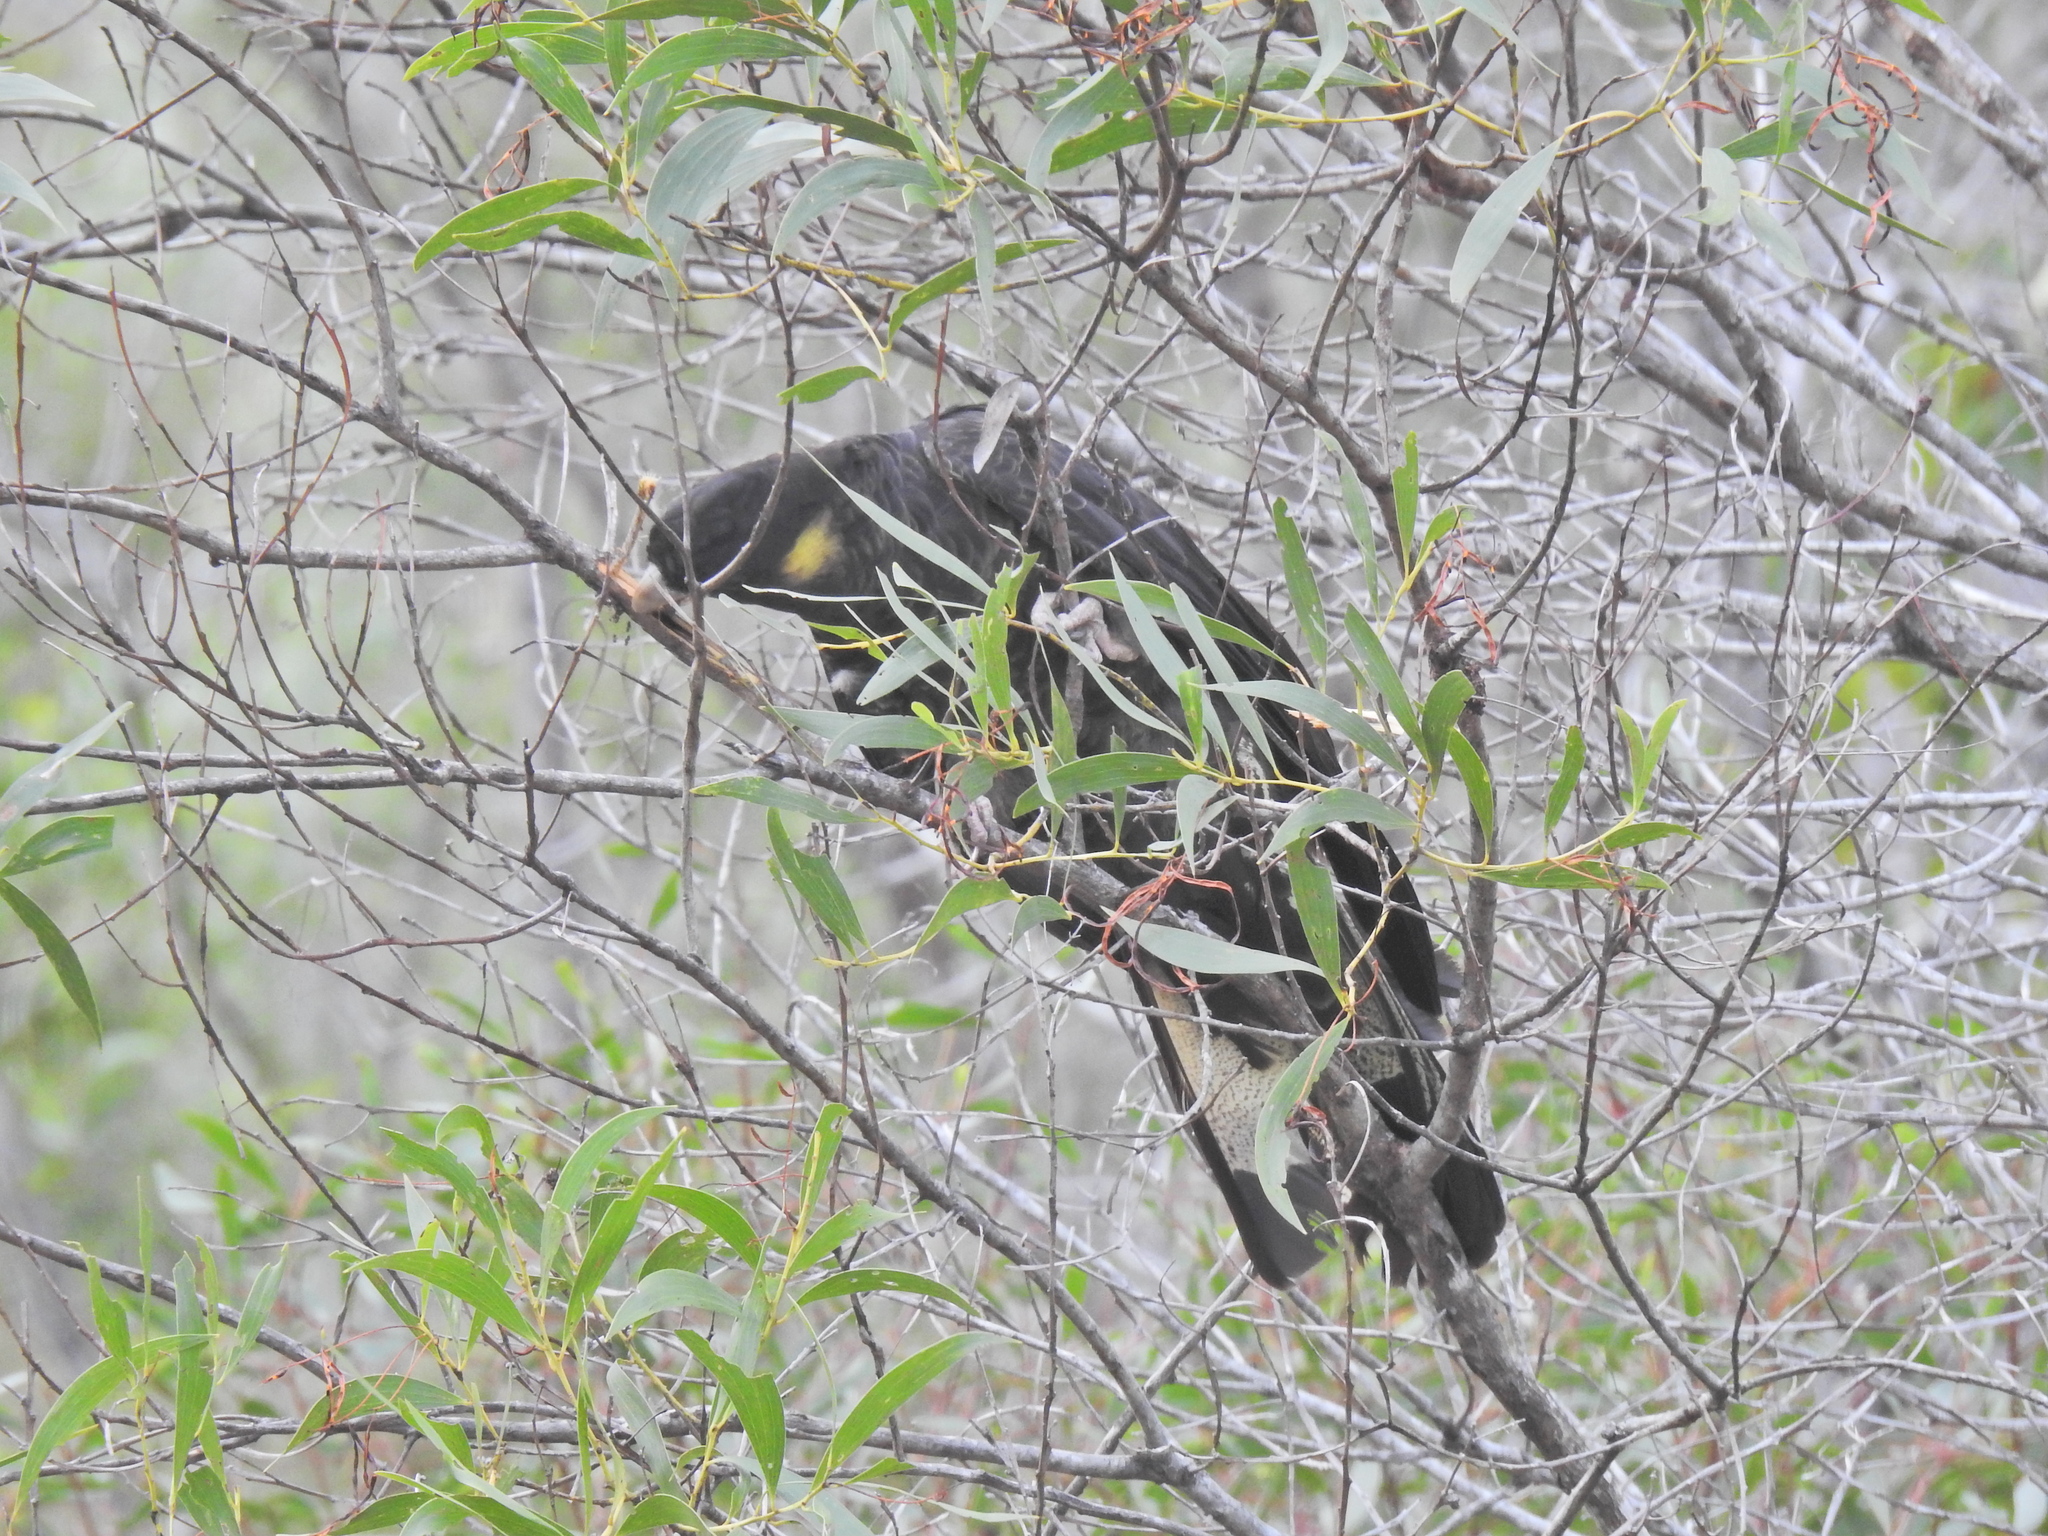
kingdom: Animalia
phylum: Chordata
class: Aves
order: Psittaciformes
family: Cacatuidae
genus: Zanda
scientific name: Zanda funerea
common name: Yellow-tailed black-cockatoo
